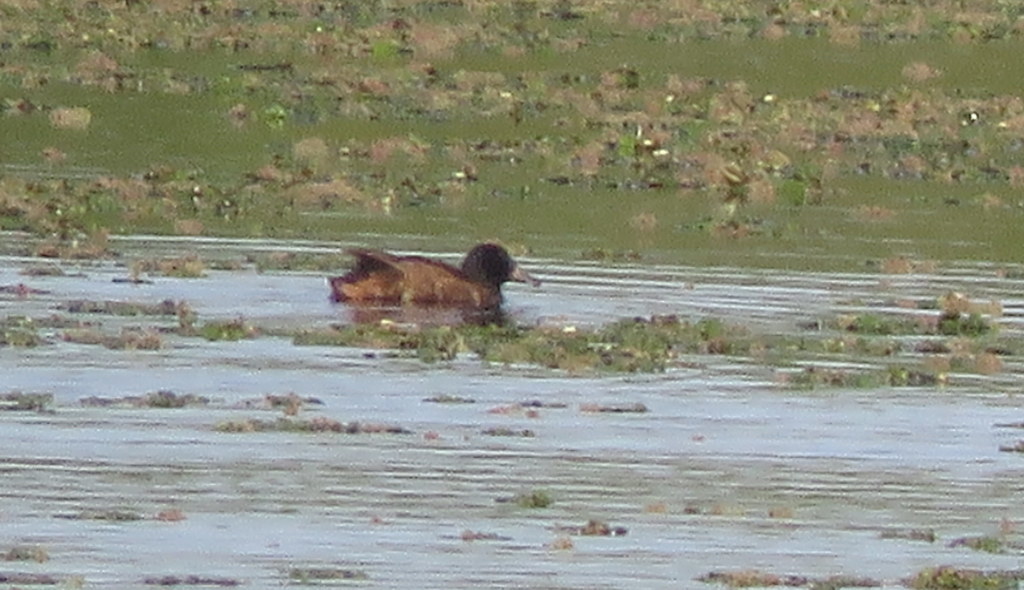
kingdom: Animalia
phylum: Chordata
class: Aves
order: Anseriformes
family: Anatidae
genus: Heteronetta
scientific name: Heteronetta atricapilla
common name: Black-headed duck
